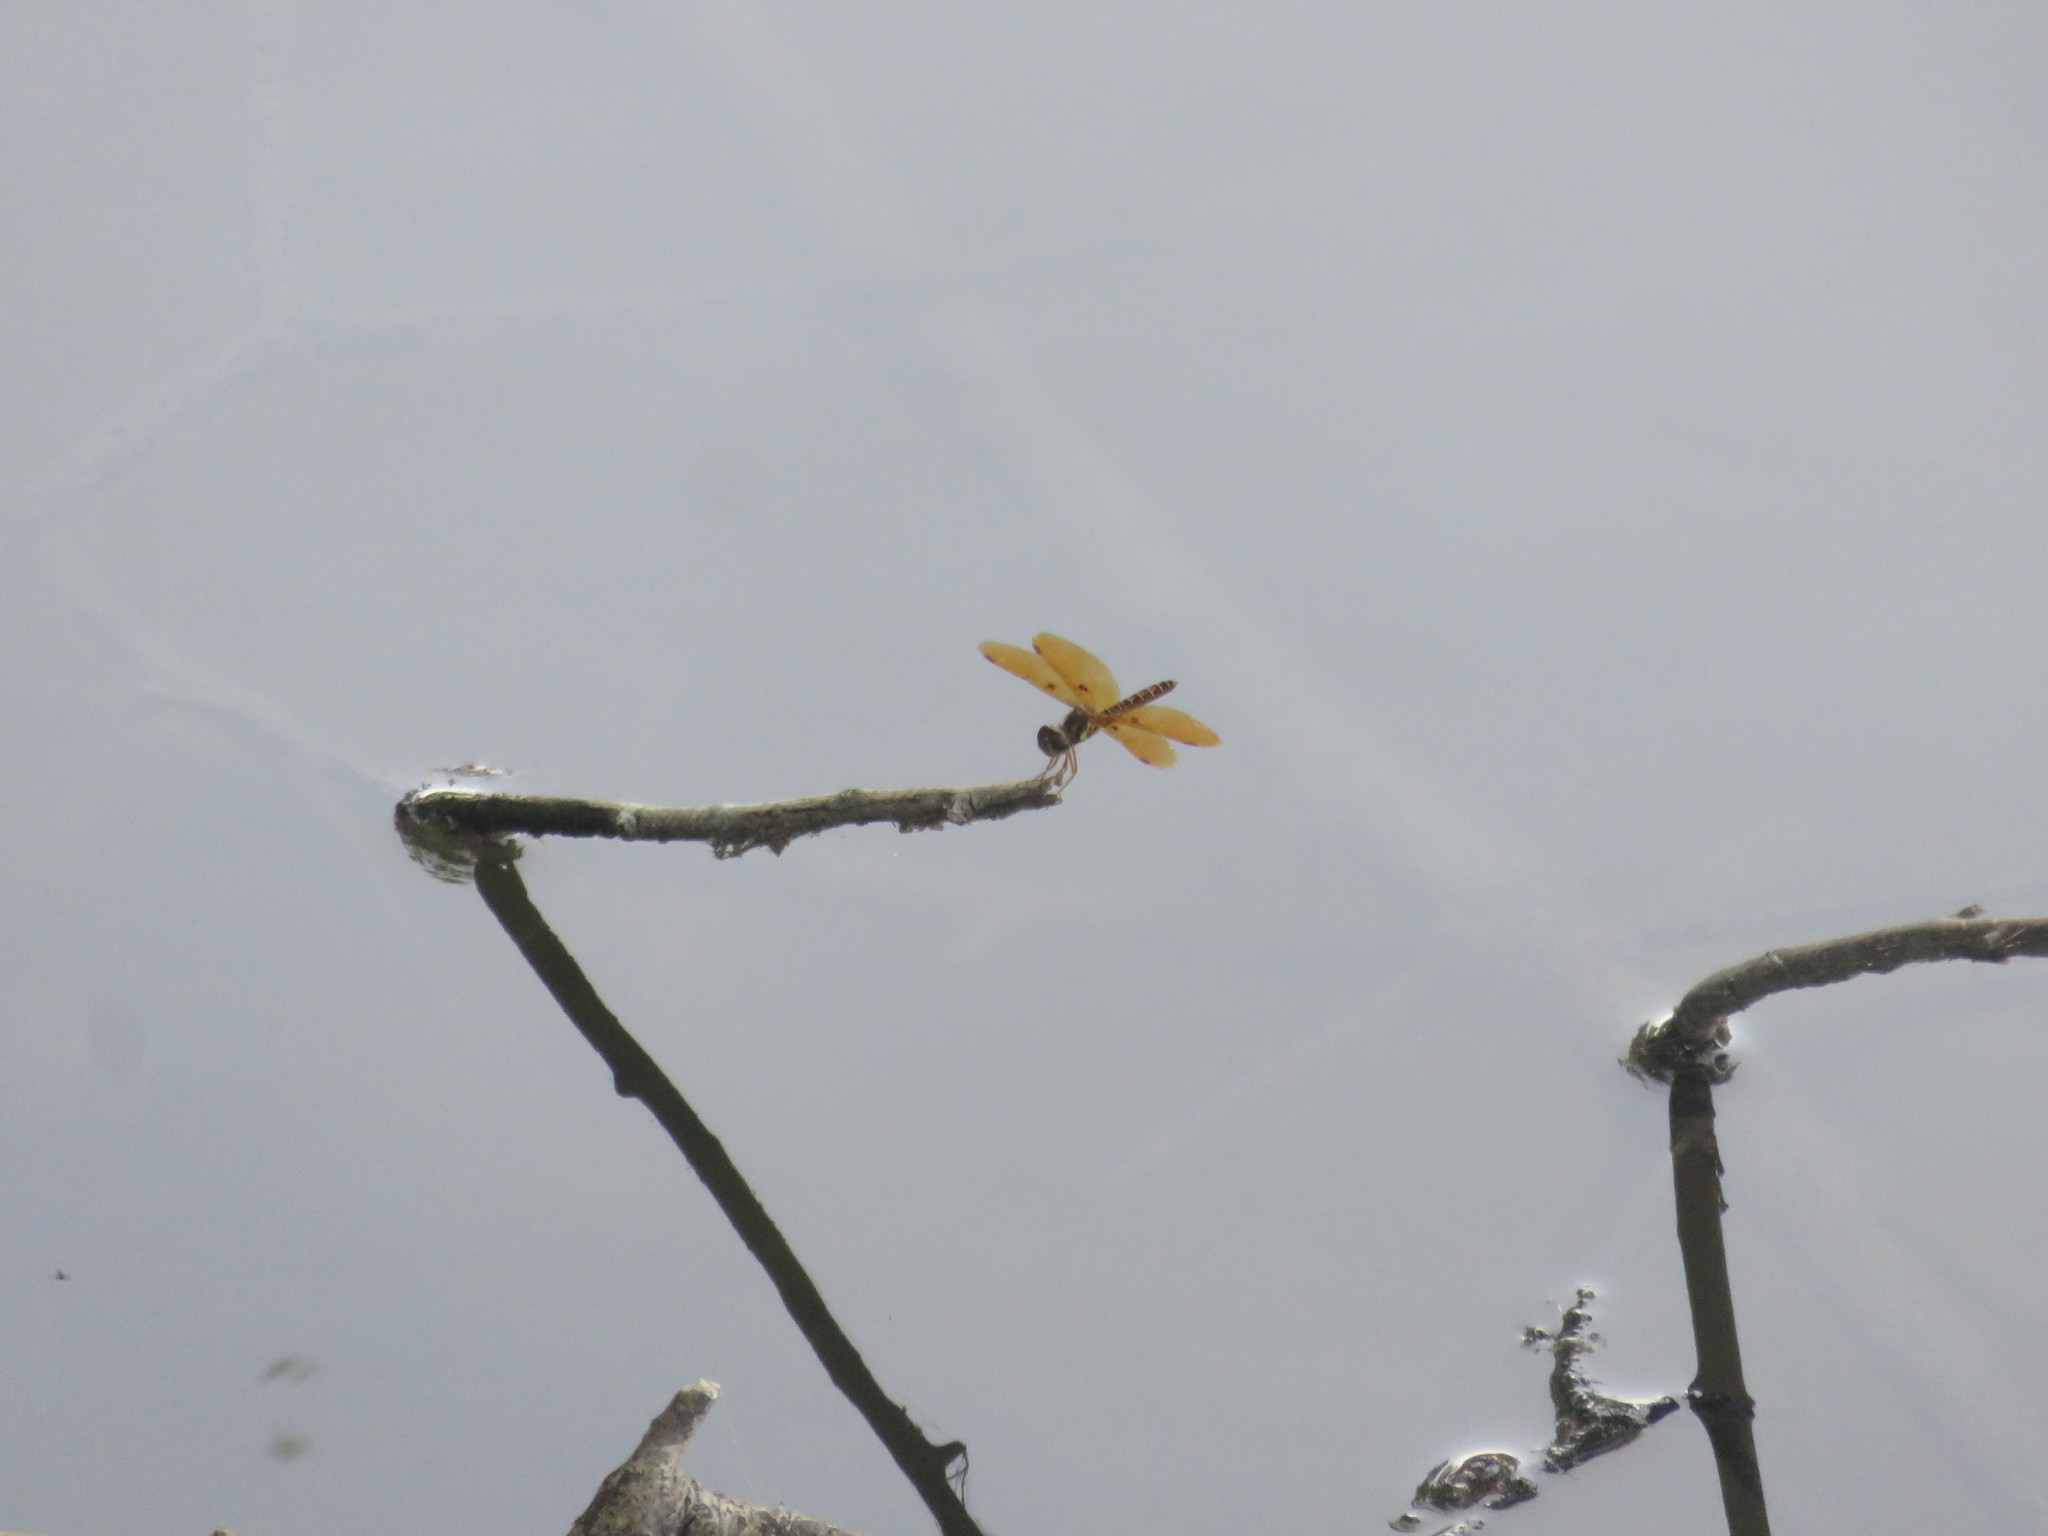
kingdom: Animalia
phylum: Arthropoda
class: Insecta
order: Odonata
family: Libellulidae
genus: Perithemis
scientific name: Perithemis tenera
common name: Eastern amberwing
